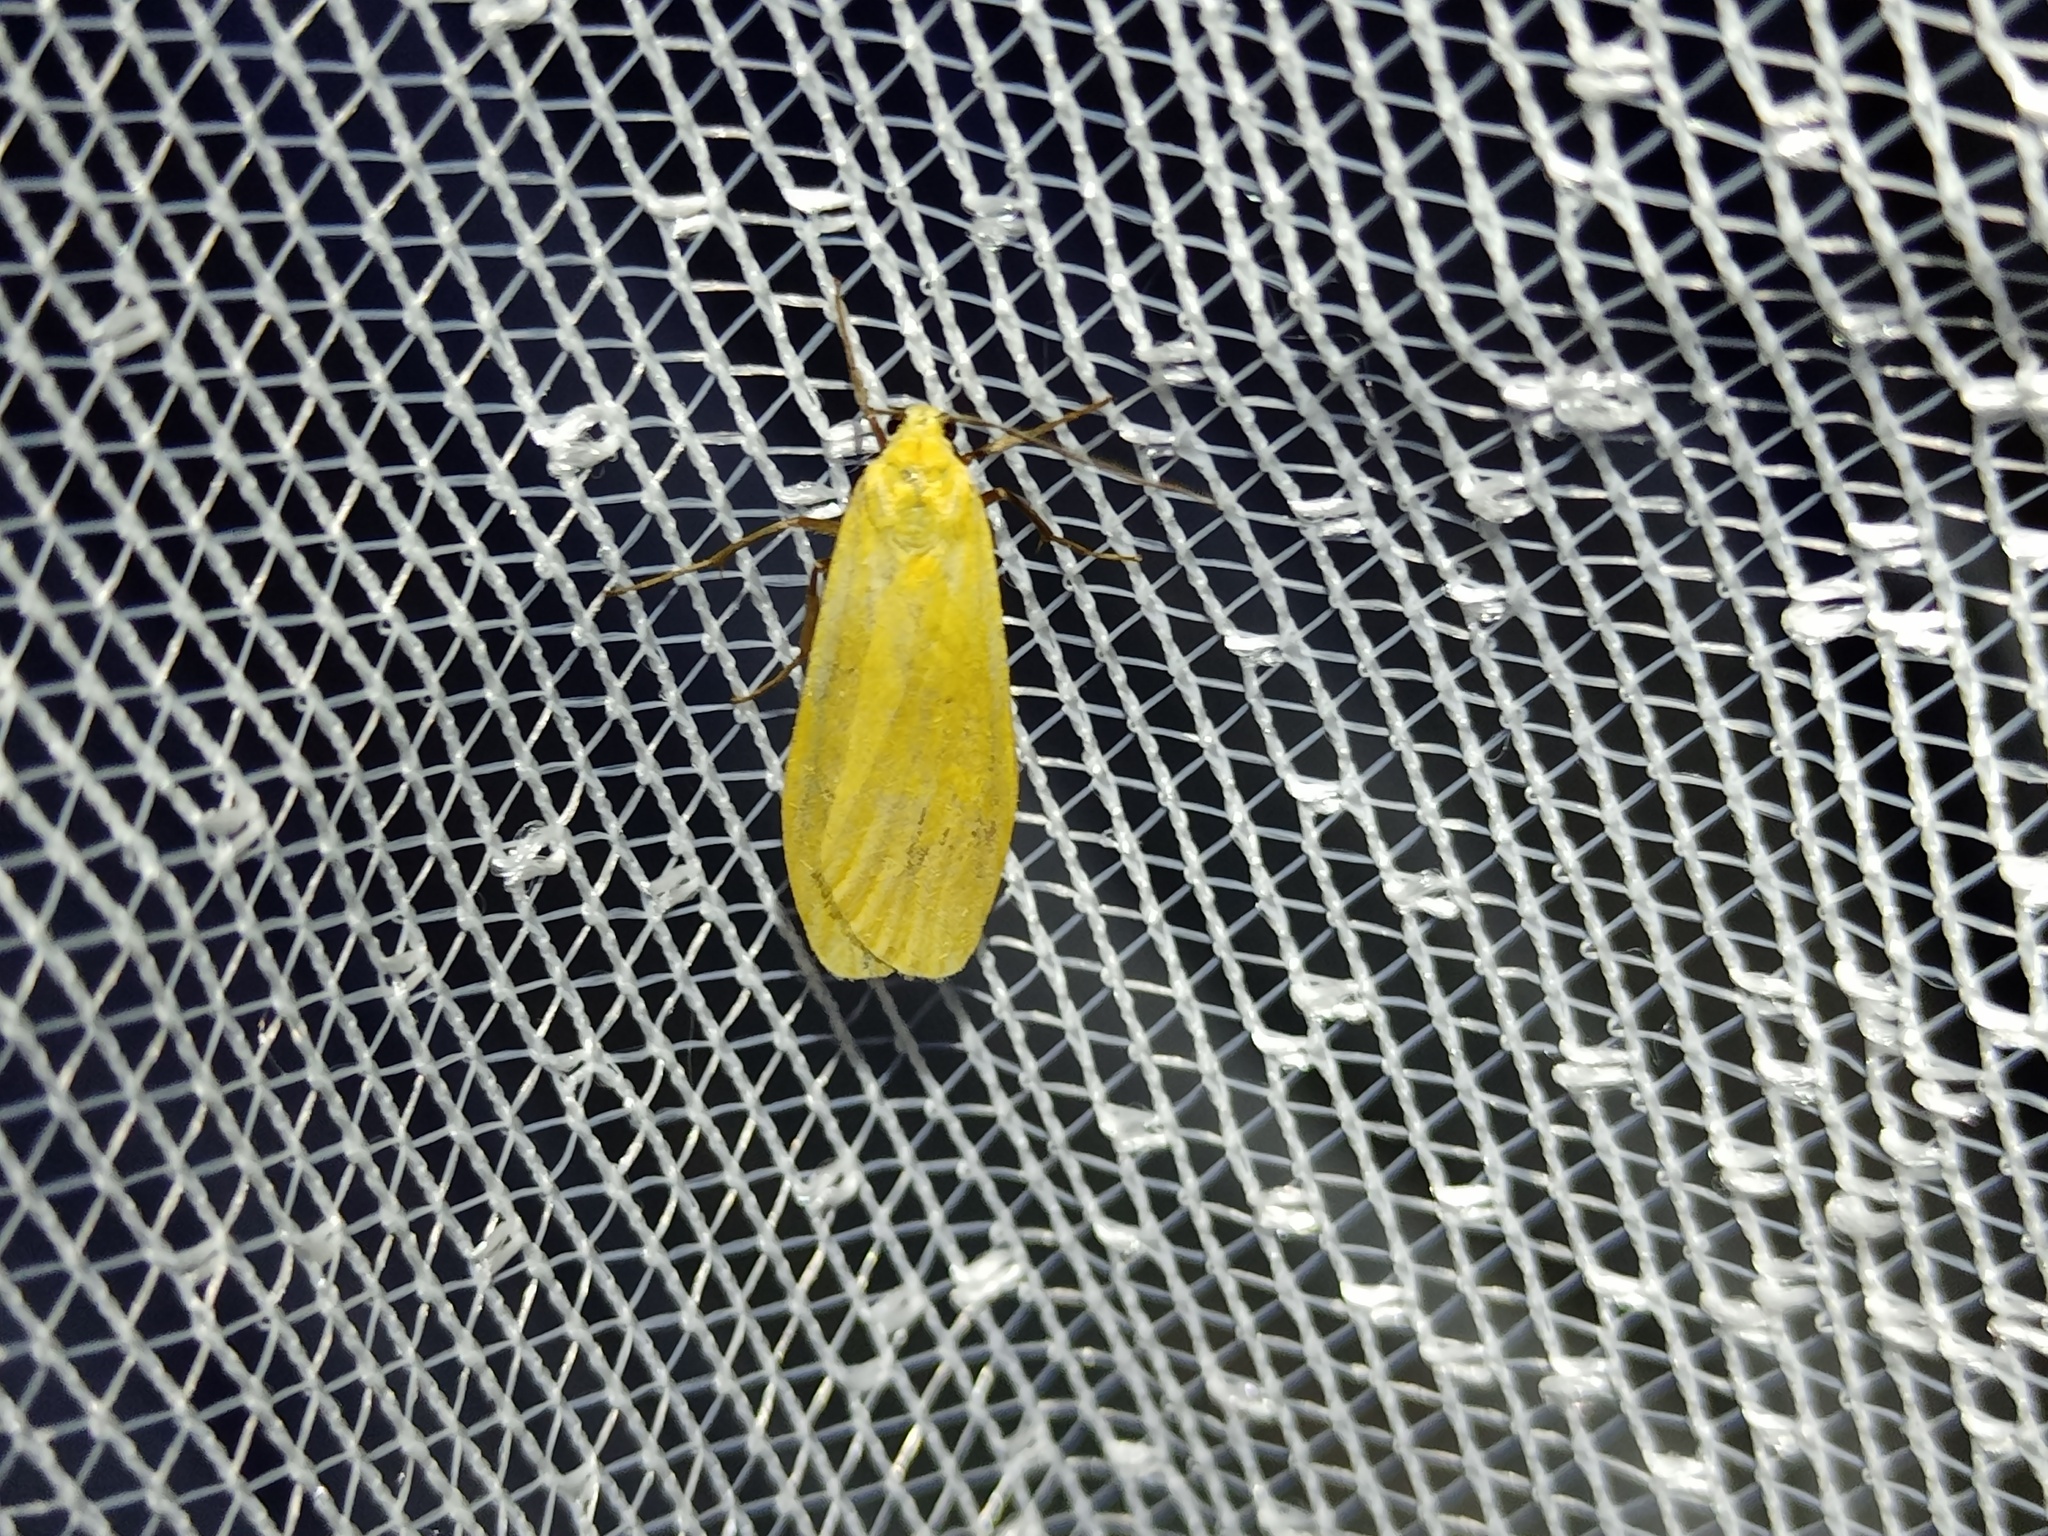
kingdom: Animalia
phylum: Arthropoda
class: Insecta
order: Lepidoptera
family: Erebidae
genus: Wittia
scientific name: Wittia sororcula
